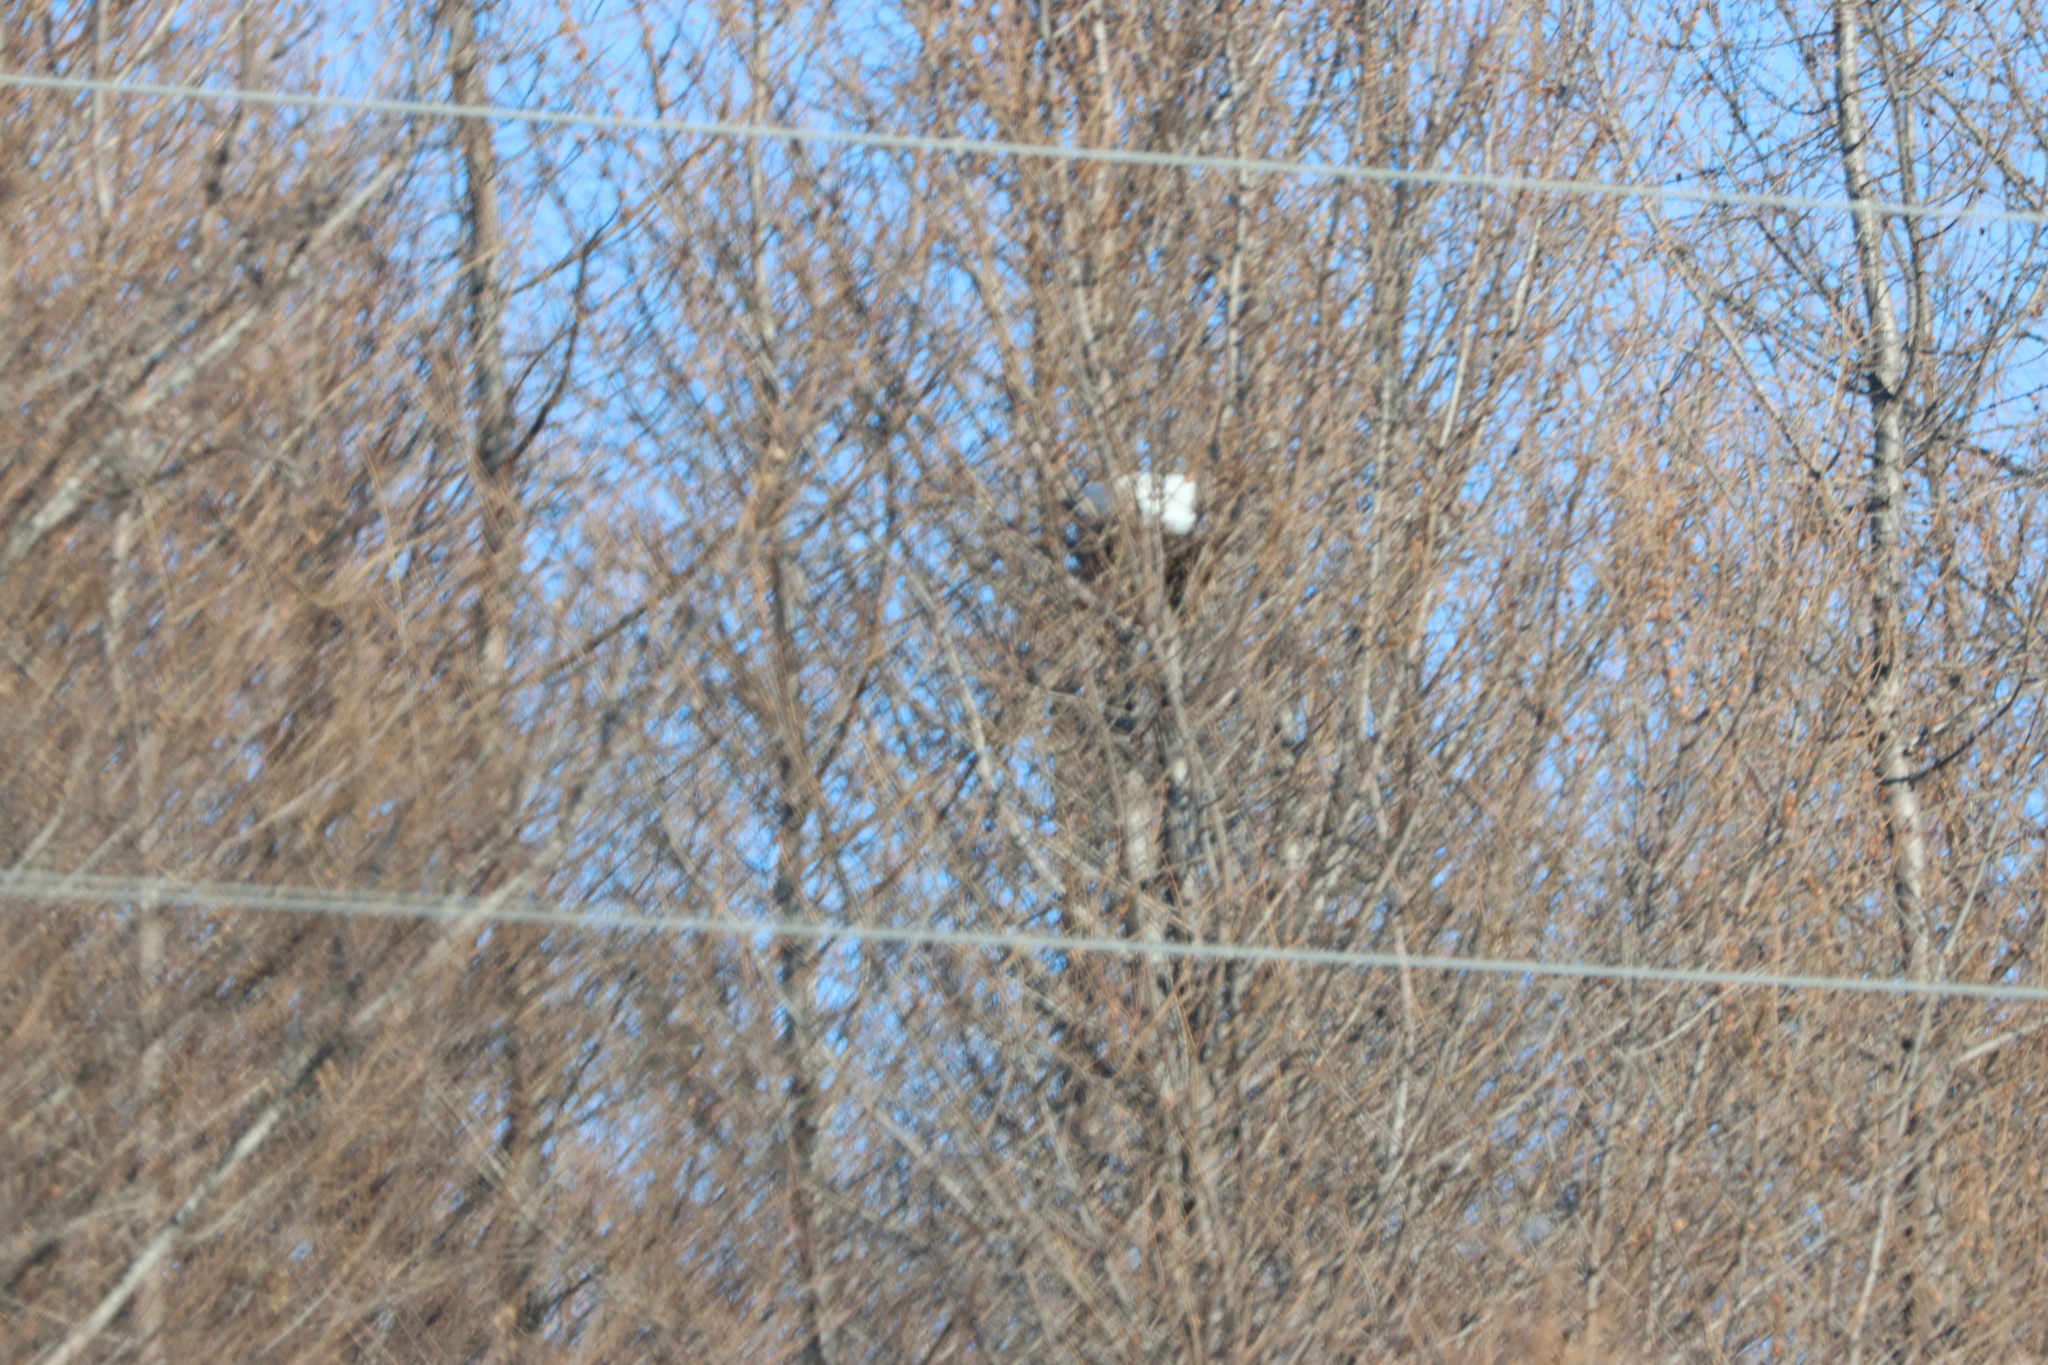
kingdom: Plantae
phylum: Tracheophyta
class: Magnoliopsida
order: Malpighiales
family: Salicaceae
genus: Populus
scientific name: Populus balsamifera
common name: Balsam poplar
